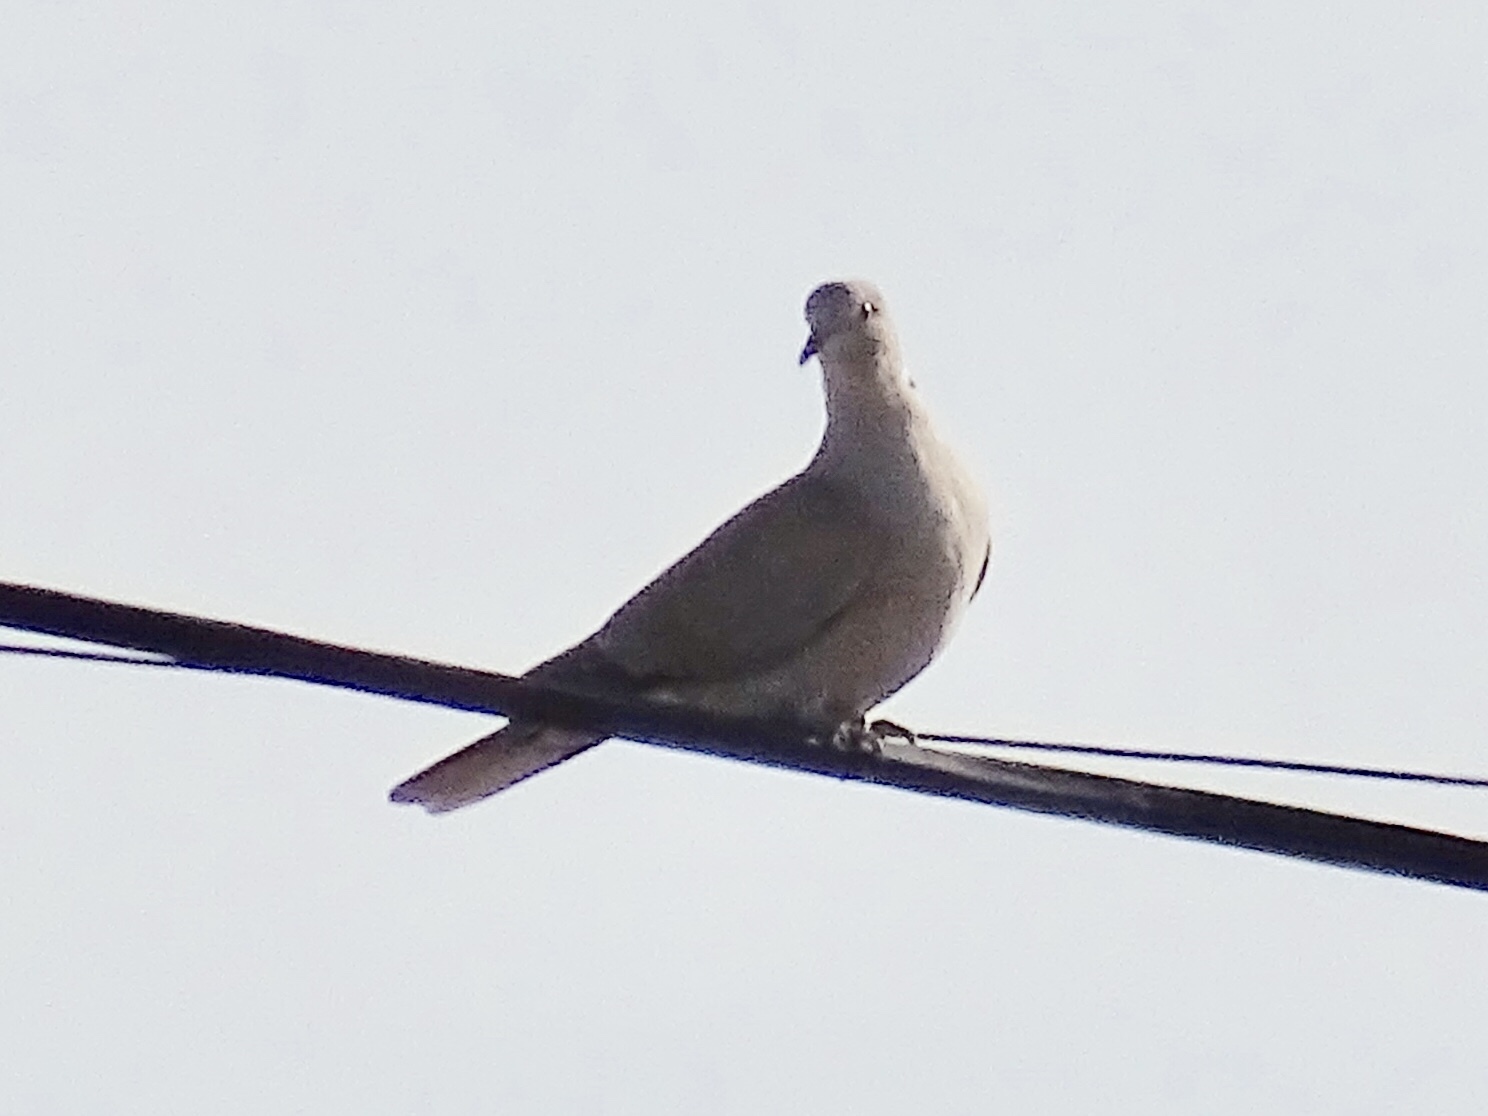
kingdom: Animalia
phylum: Chordata
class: Aves
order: Columbiformes
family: Columbidae
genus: Streptopelia
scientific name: Streptopelia decaocto
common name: Eurasian collared dove
